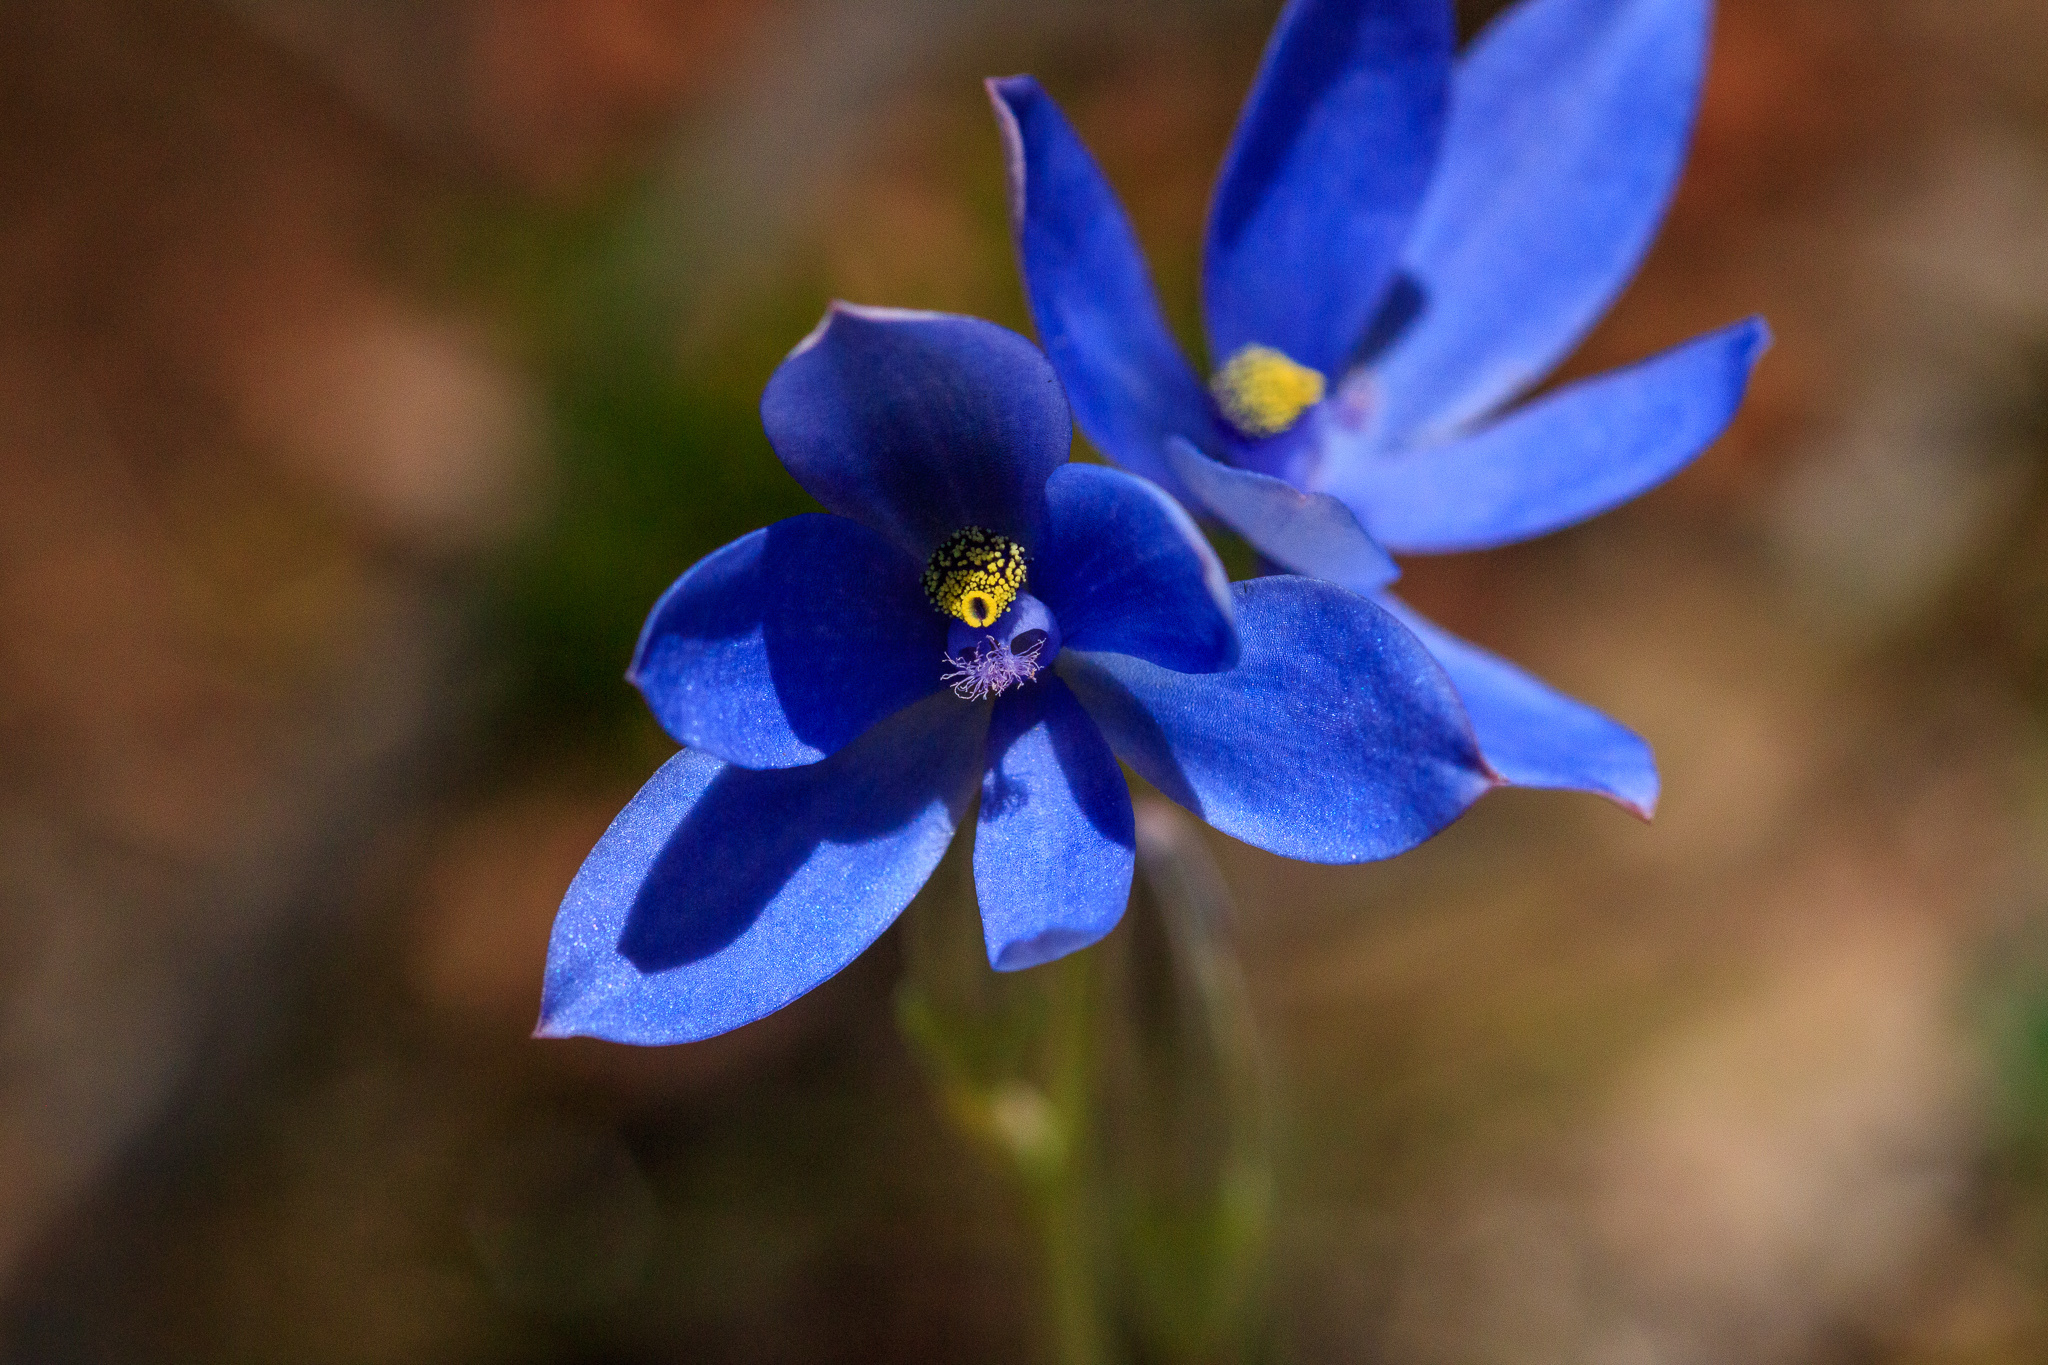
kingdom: Plantae
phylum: Tracheophyta
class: Liliopsida
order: Asparagales
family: Orchidaceae
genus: Thelymitra
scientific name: Thelymitra crinita
